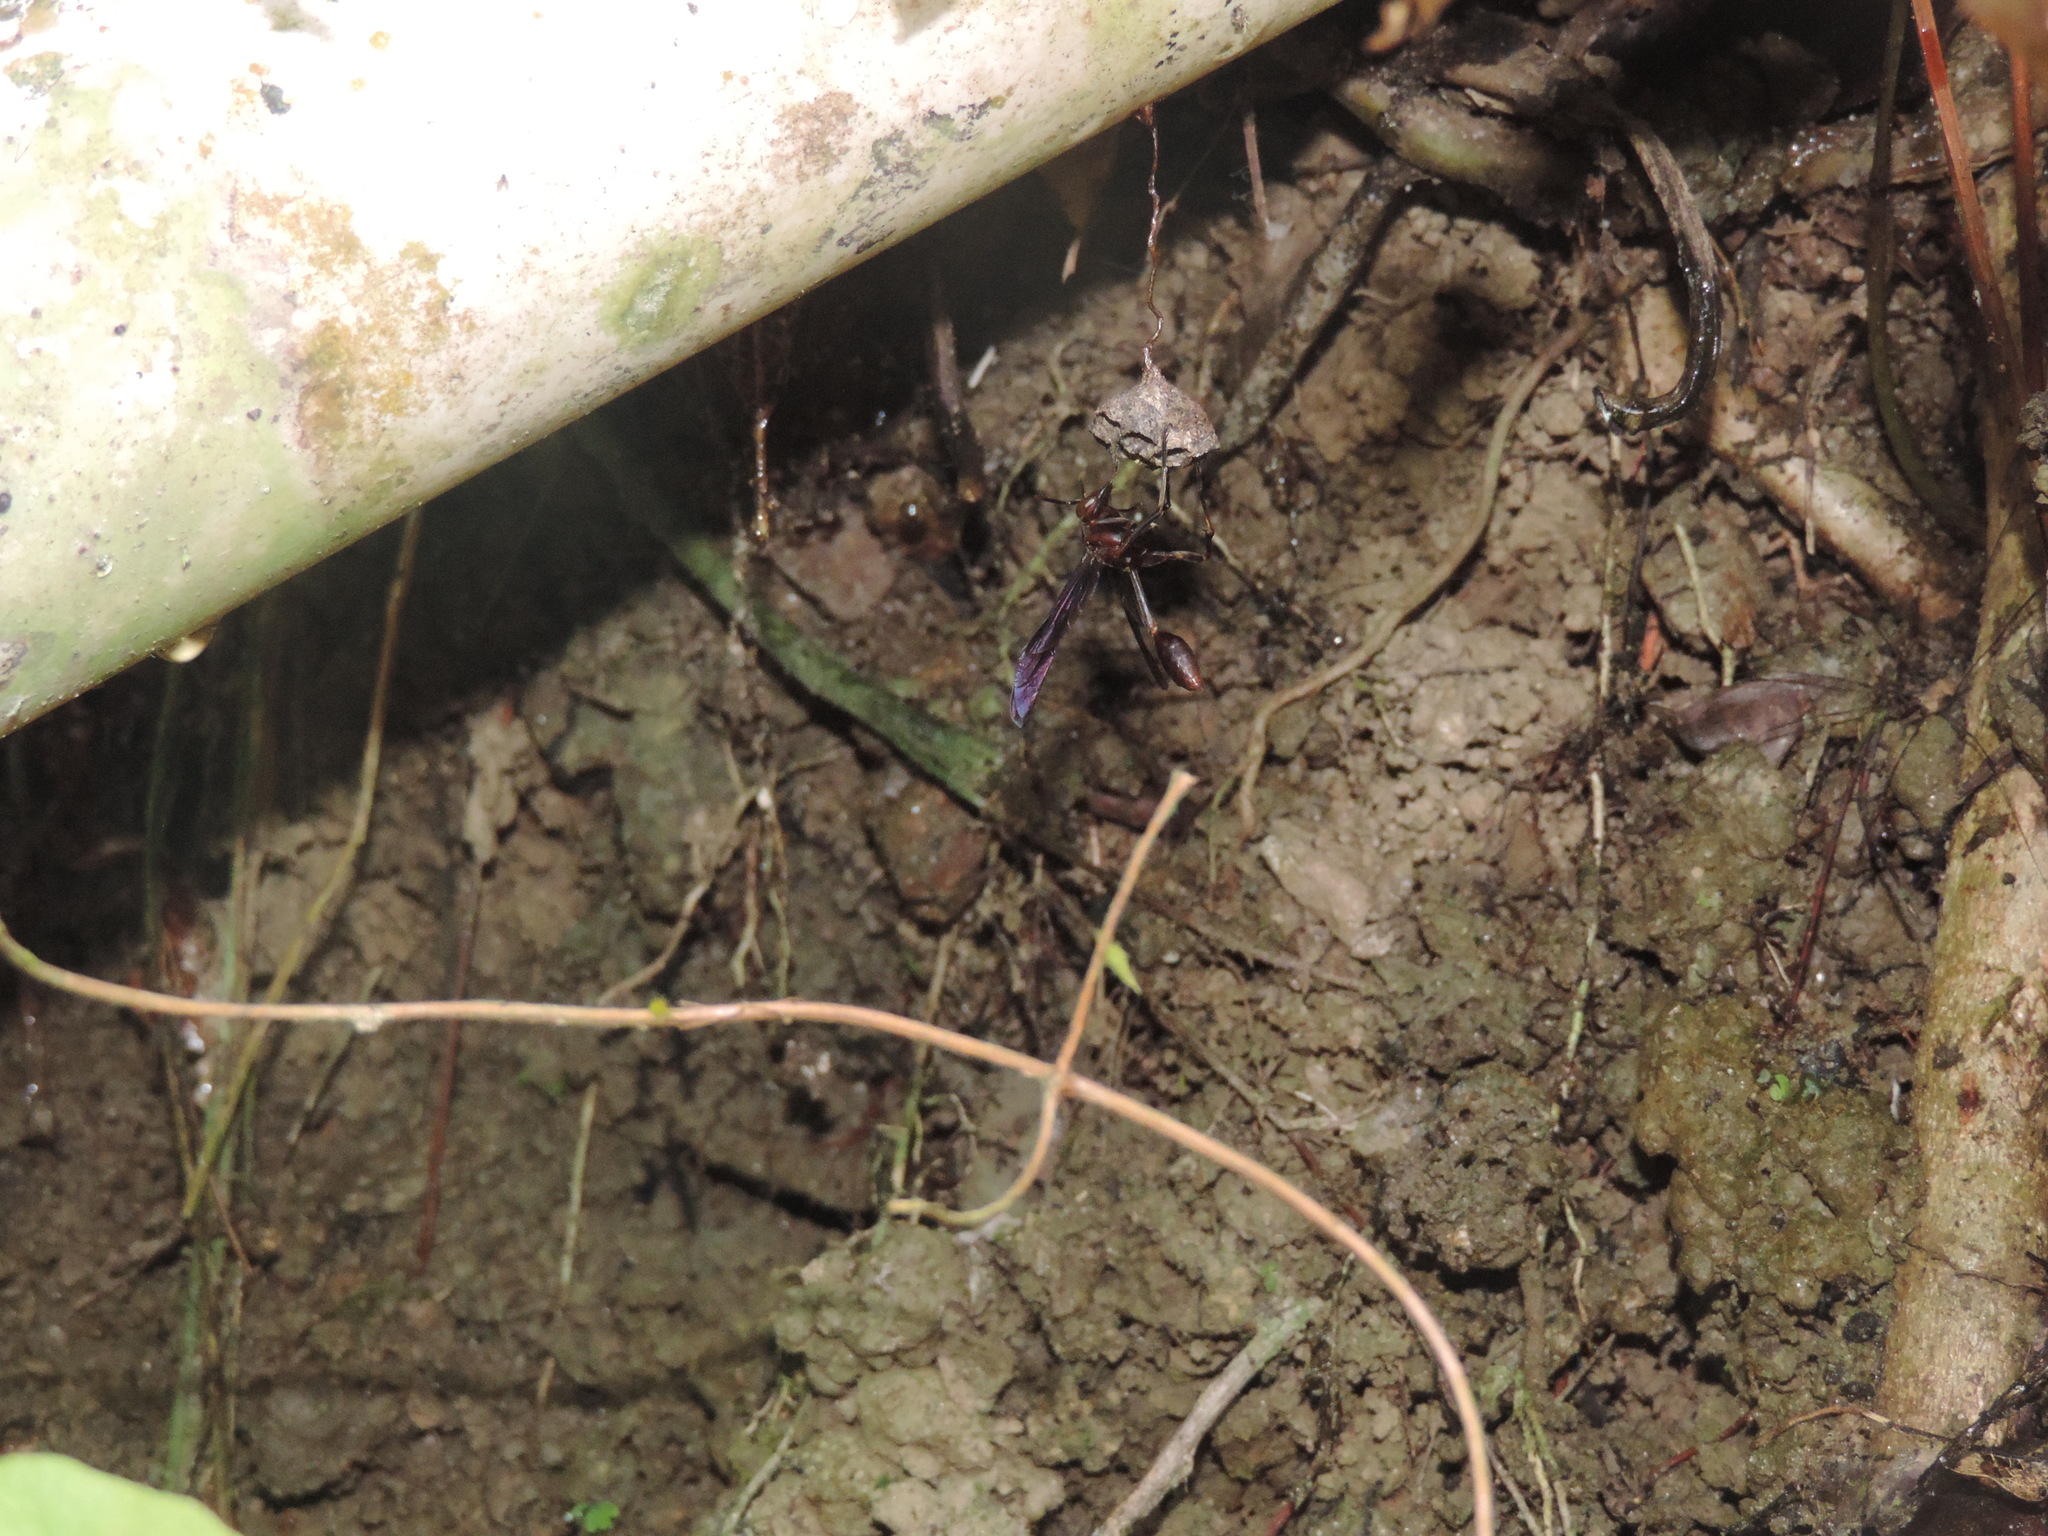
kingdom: Animalia
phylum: Arthropoda
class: Insecta
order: Hymenoptera
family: Vespidae
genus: Mischocyttarus
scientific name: Mischocyttarus
